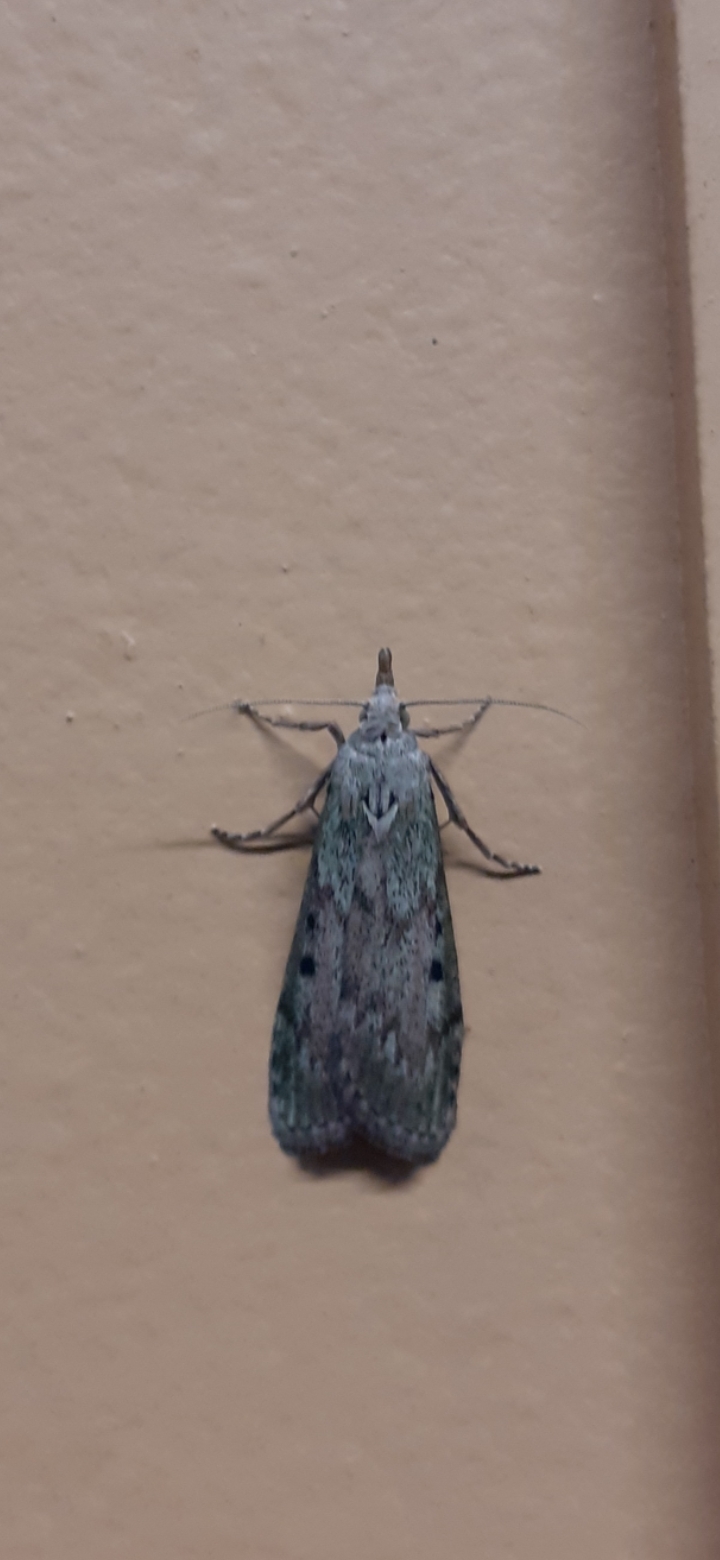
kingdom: Animalia
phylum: Arthropoda
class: Insecta
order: Lepidoptera
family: Pyralidae
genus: Aphomia
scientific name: Aphomia sociella
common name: Bee moth
